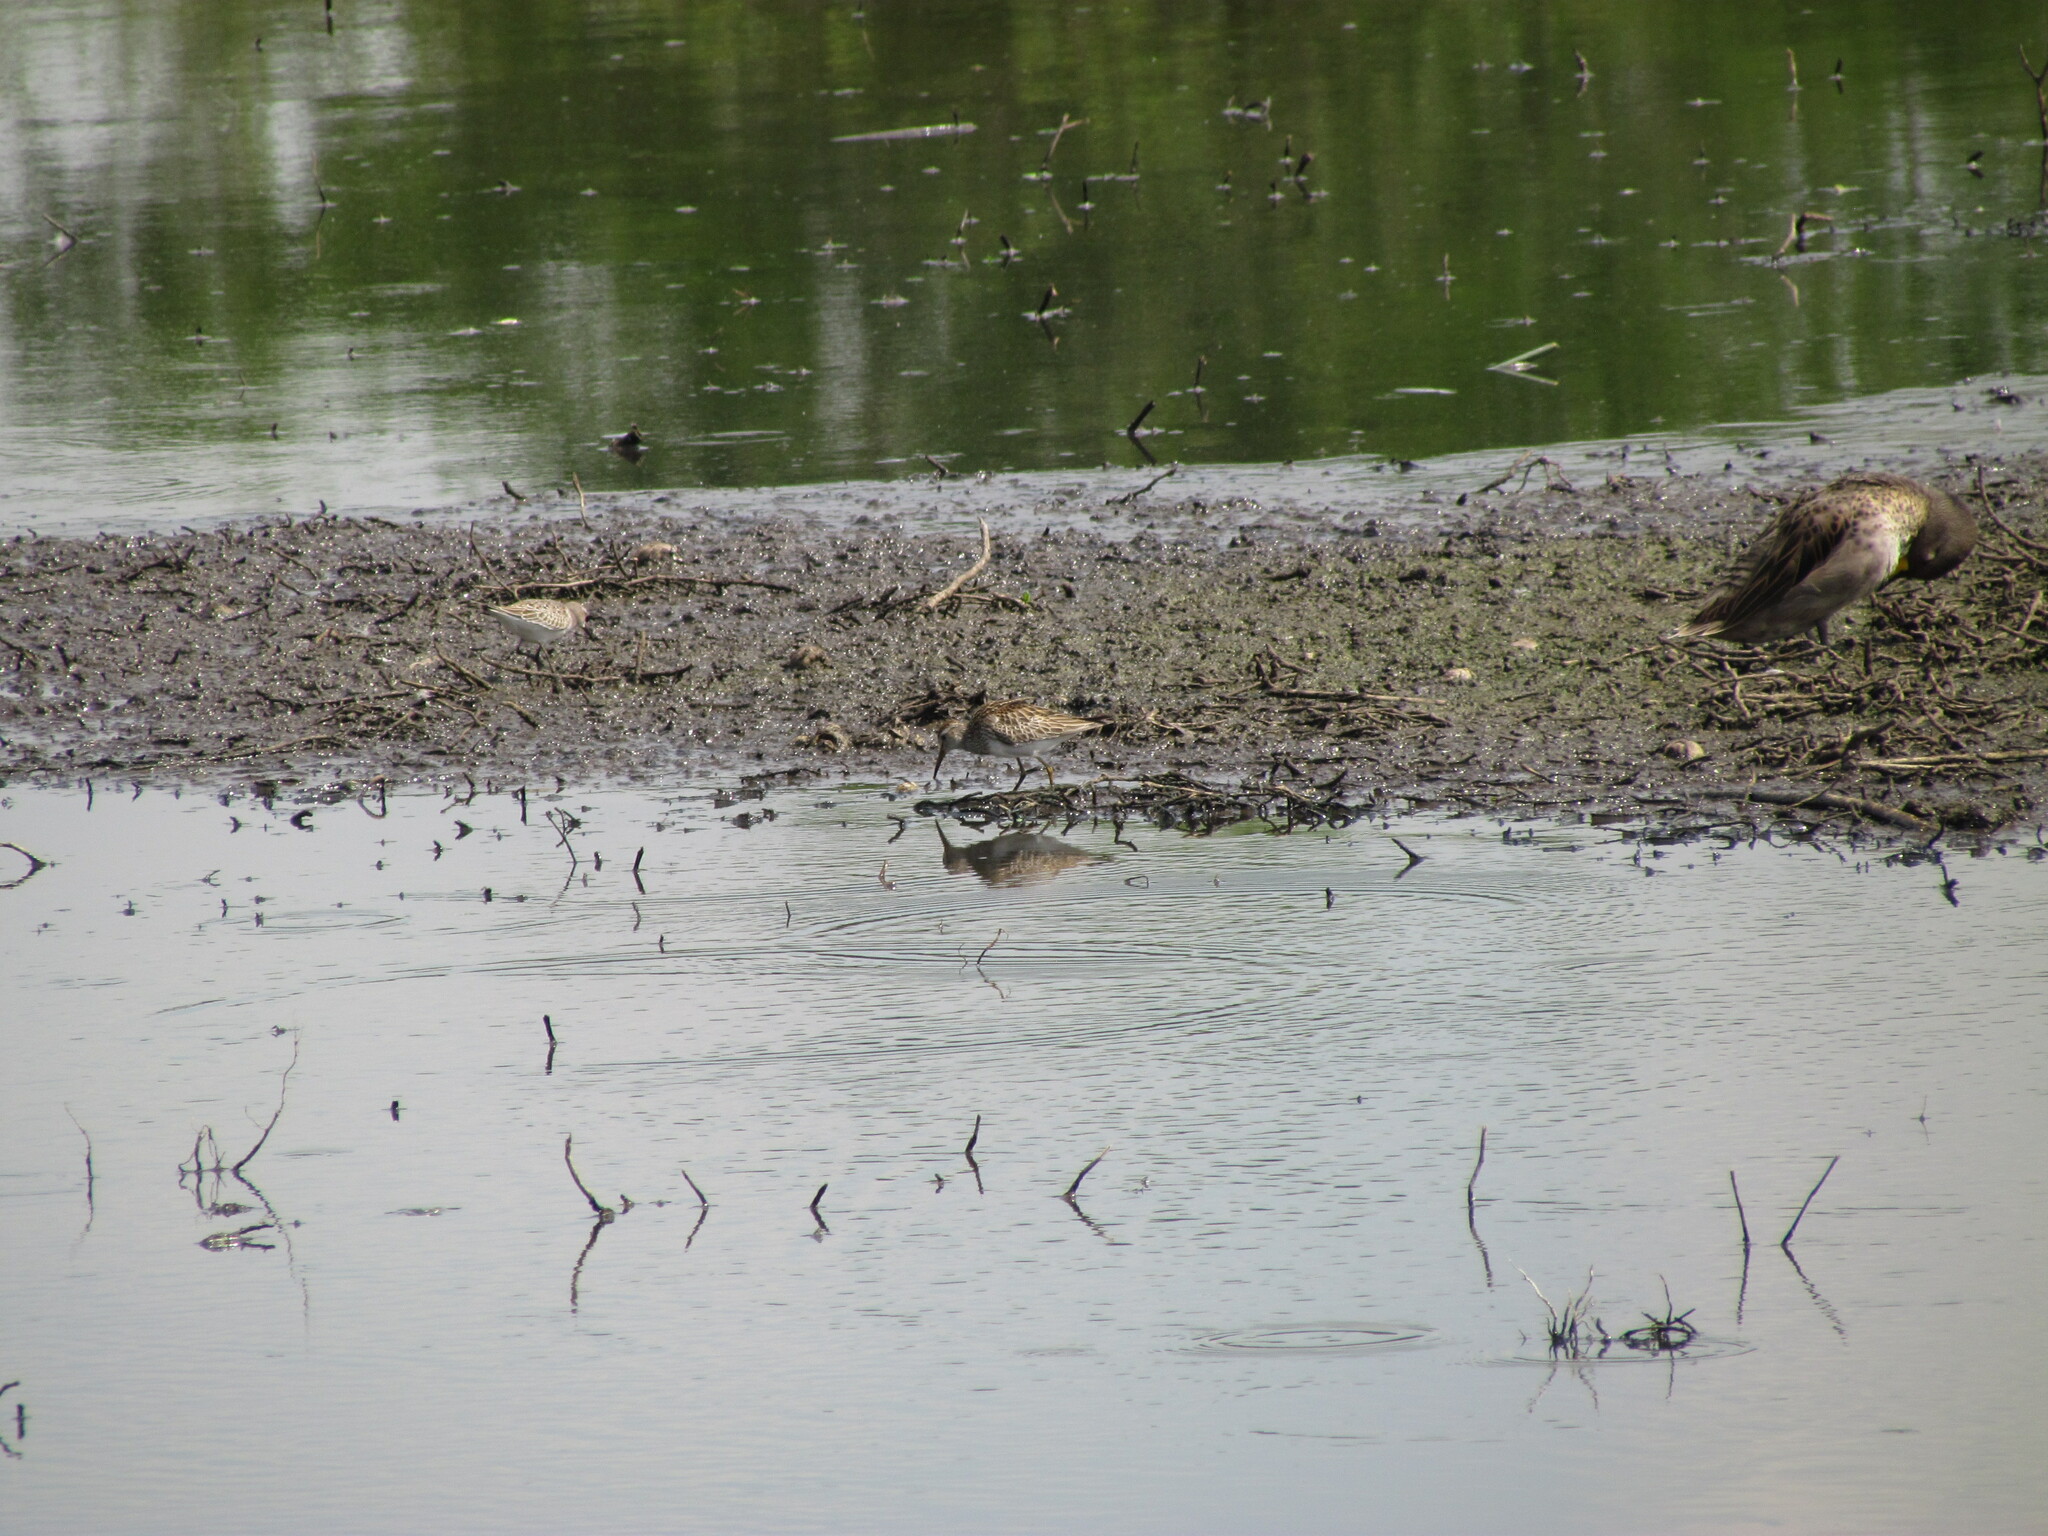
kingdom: Animalia
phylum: Chordata
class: Aves
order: Charadriiformes
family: Scolopacidae
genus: Calidris
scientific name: Calidris melanotos
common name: Pectoral sandpiper
